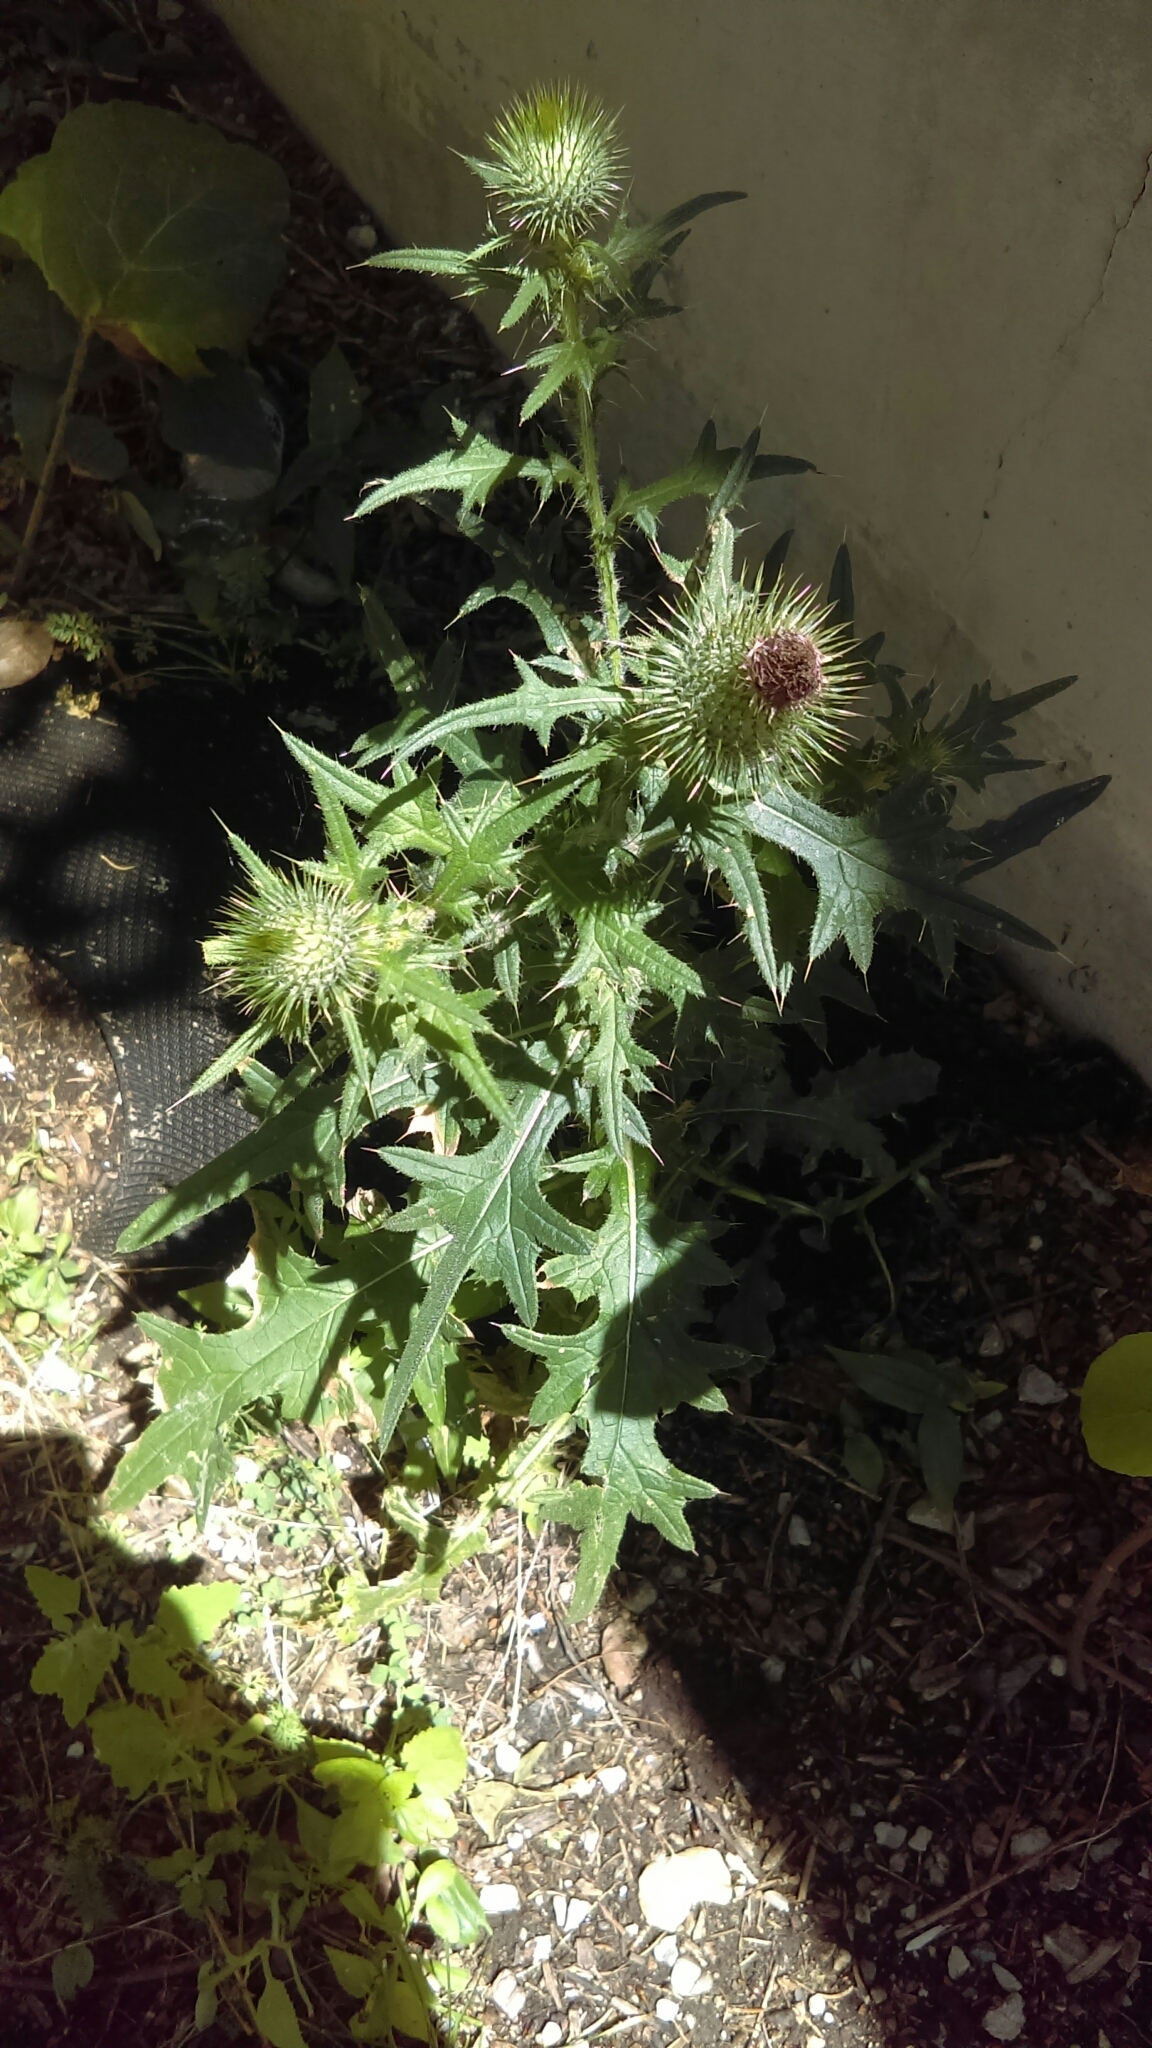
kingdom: Plantae
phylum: Tracheophyta
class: Magnoliopsida
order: Asterales
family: Asteraceae
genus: Cirsium
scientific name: Cirsium vulgare
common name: Bull thistle
